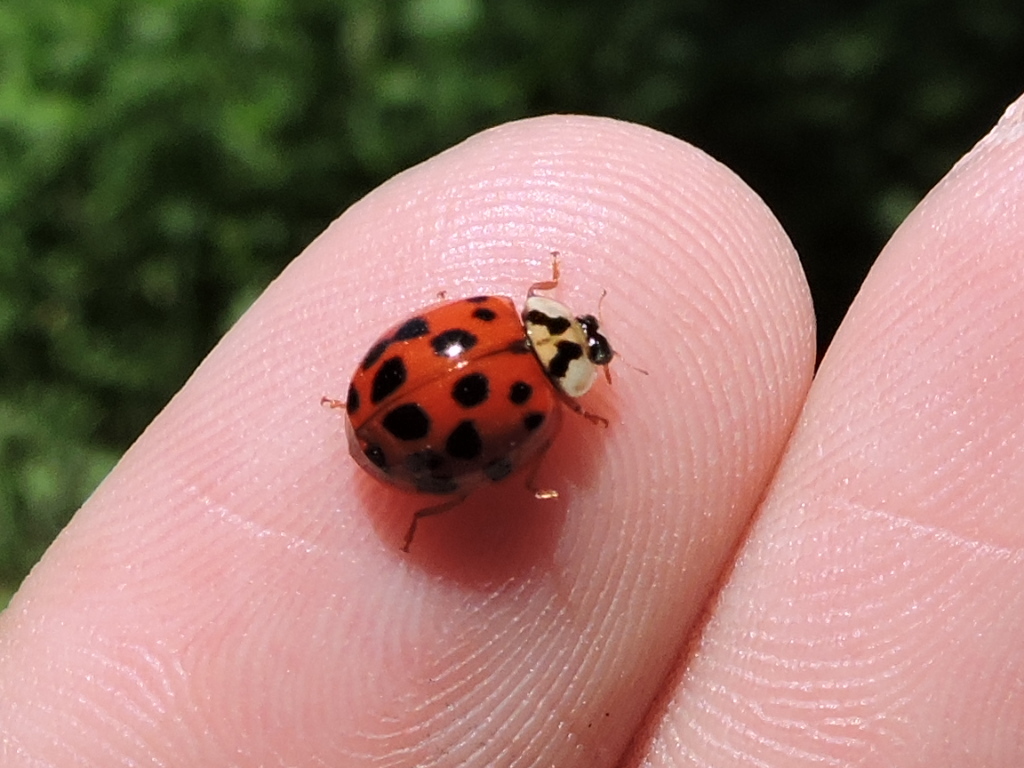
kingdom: Animalia
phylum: Arthropoda
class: Insecta
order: Coleoptera
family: Coccinellidae
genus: Harmonia
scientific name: Harmonia axyridis
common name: Harlequin ladybird
